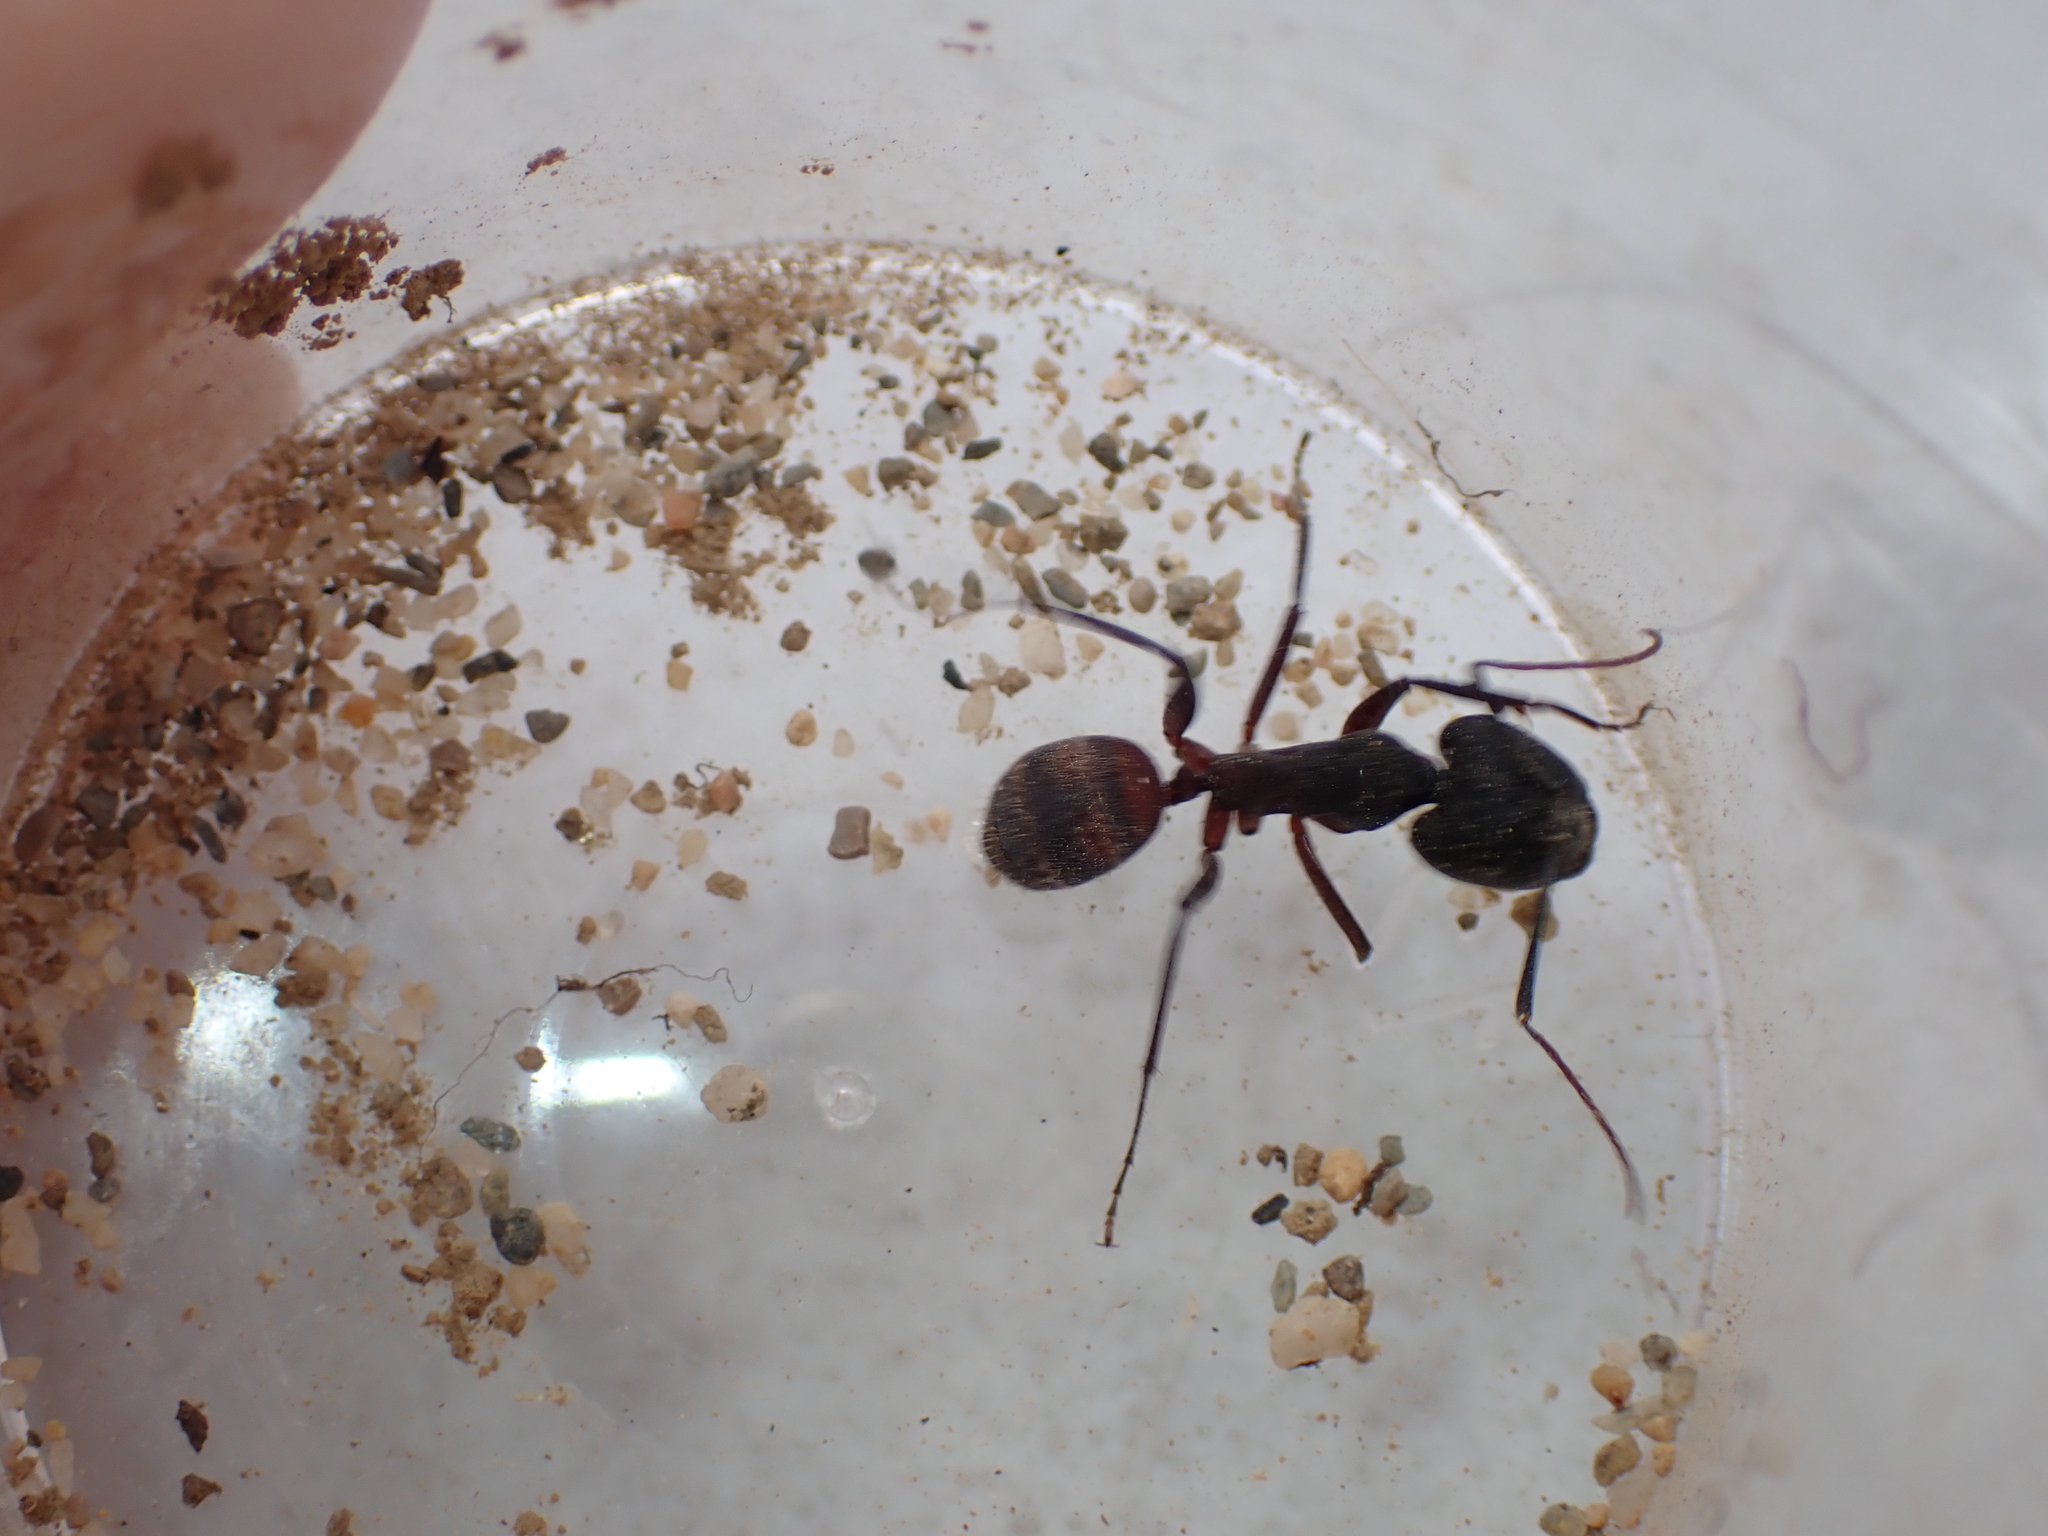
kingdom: Animalia
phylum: Arthropoda
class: Insecta
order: Hymenoptera
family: Formicidae
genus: Camponotus
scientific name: Camponotus cruentatus
